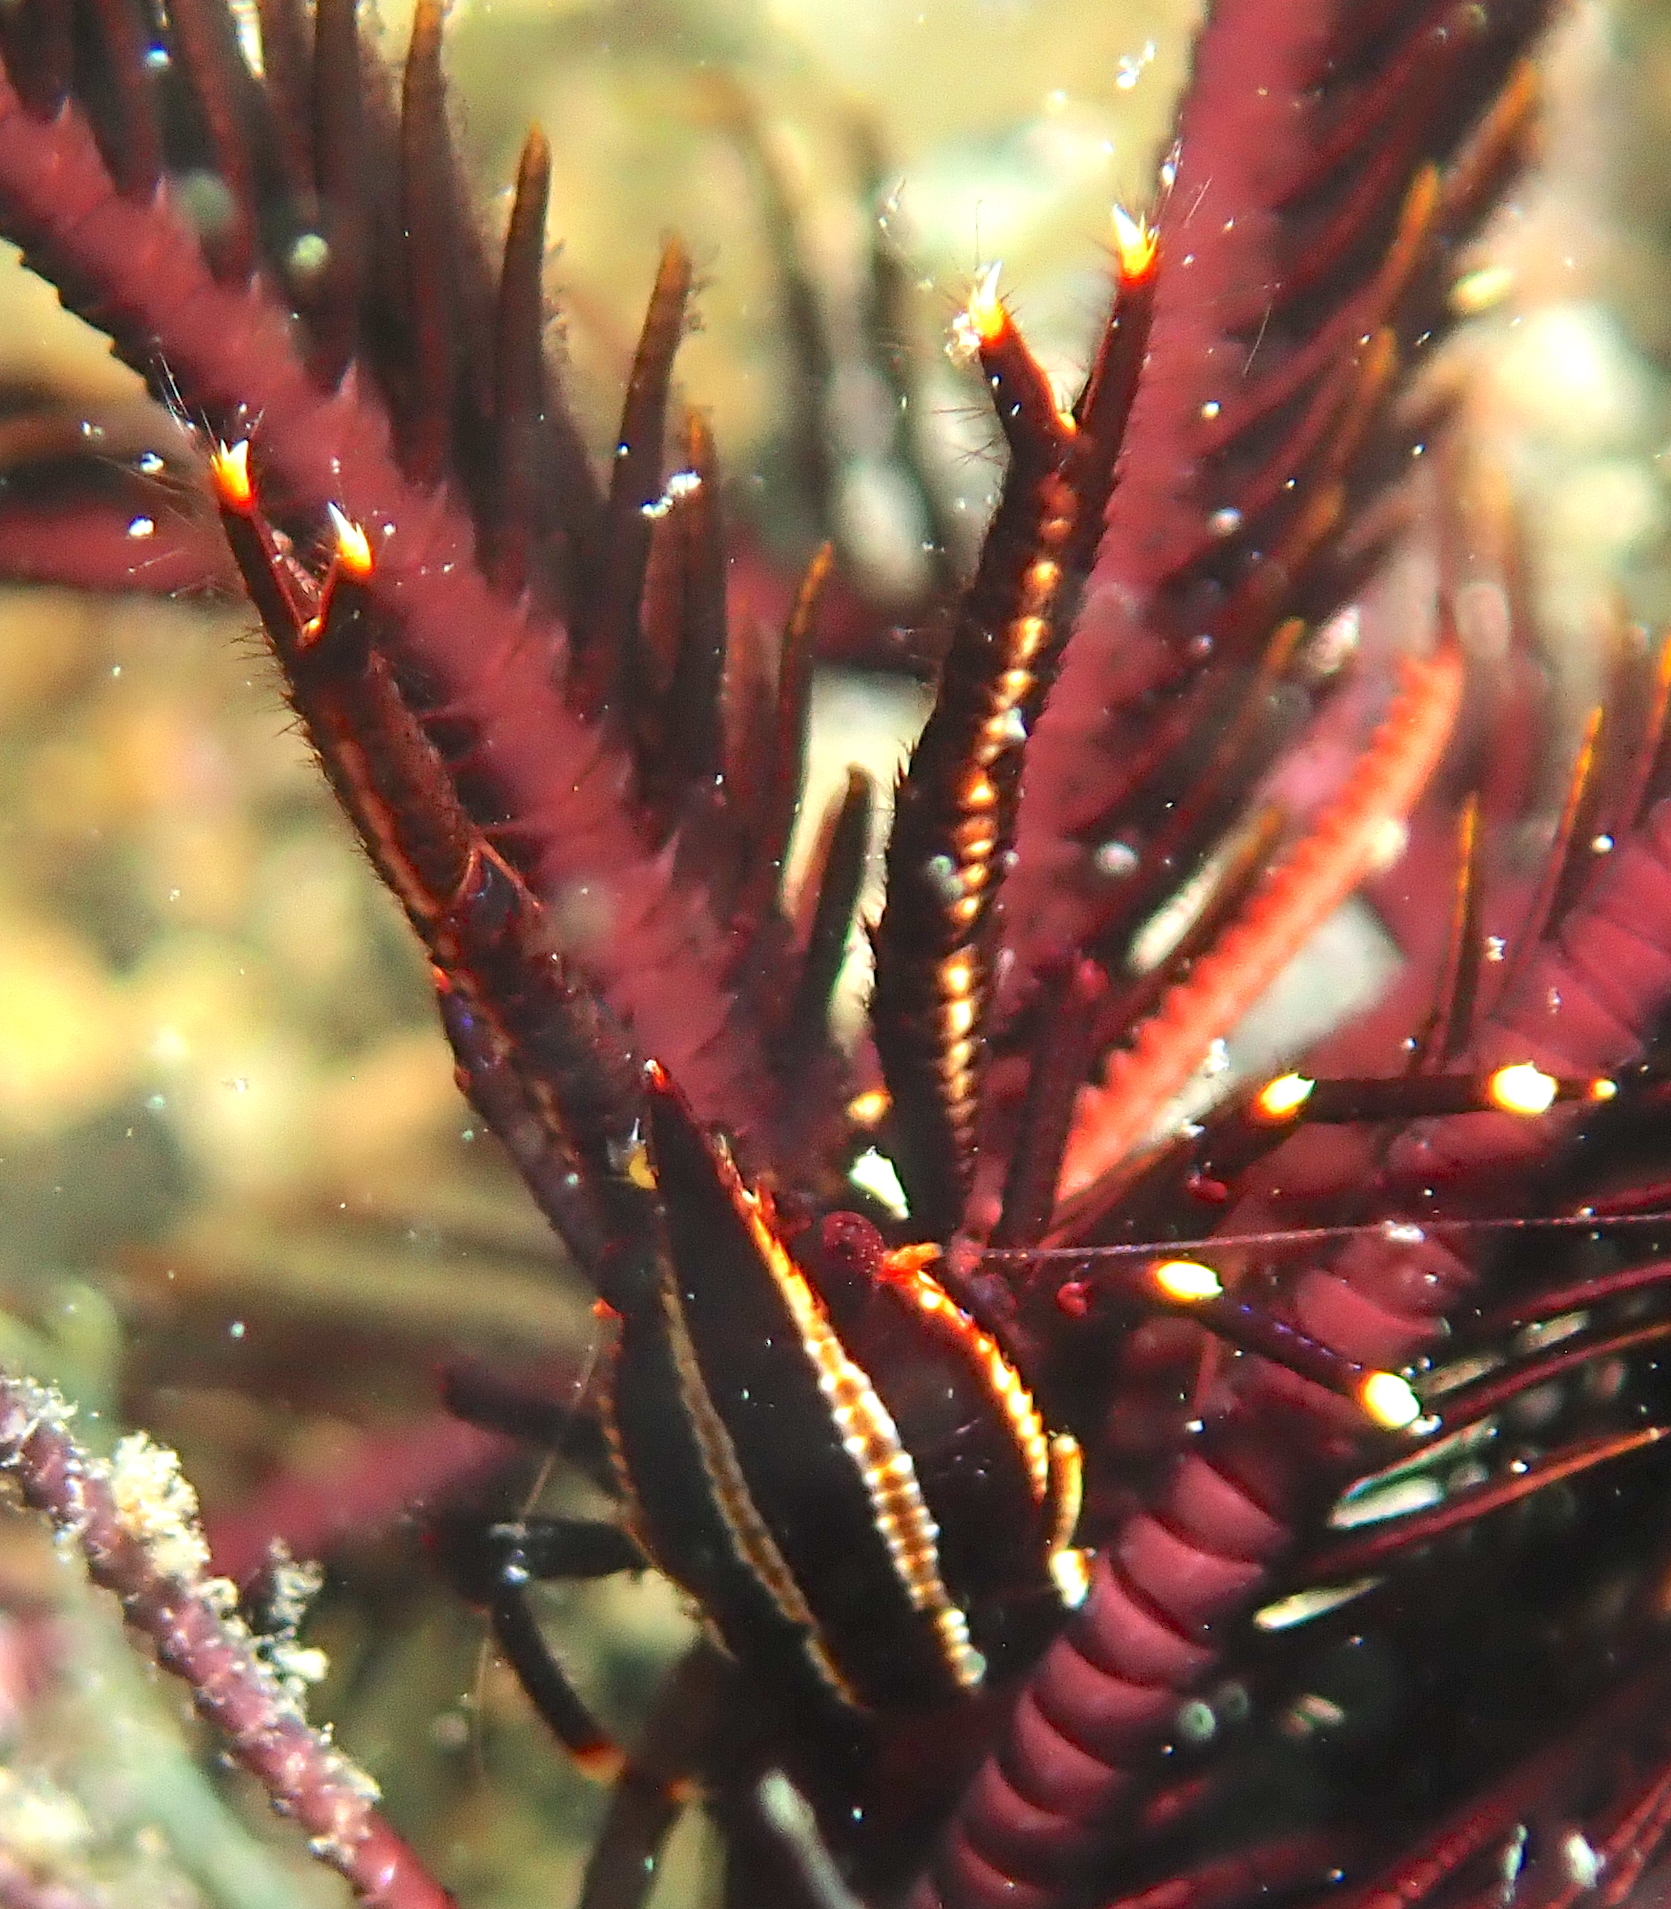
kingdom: Animalia
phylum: Arthropoda
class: Malacostraca
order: Decapoda
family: Galatheidae
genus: Allogalathea
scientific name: Allogalathea elegans
